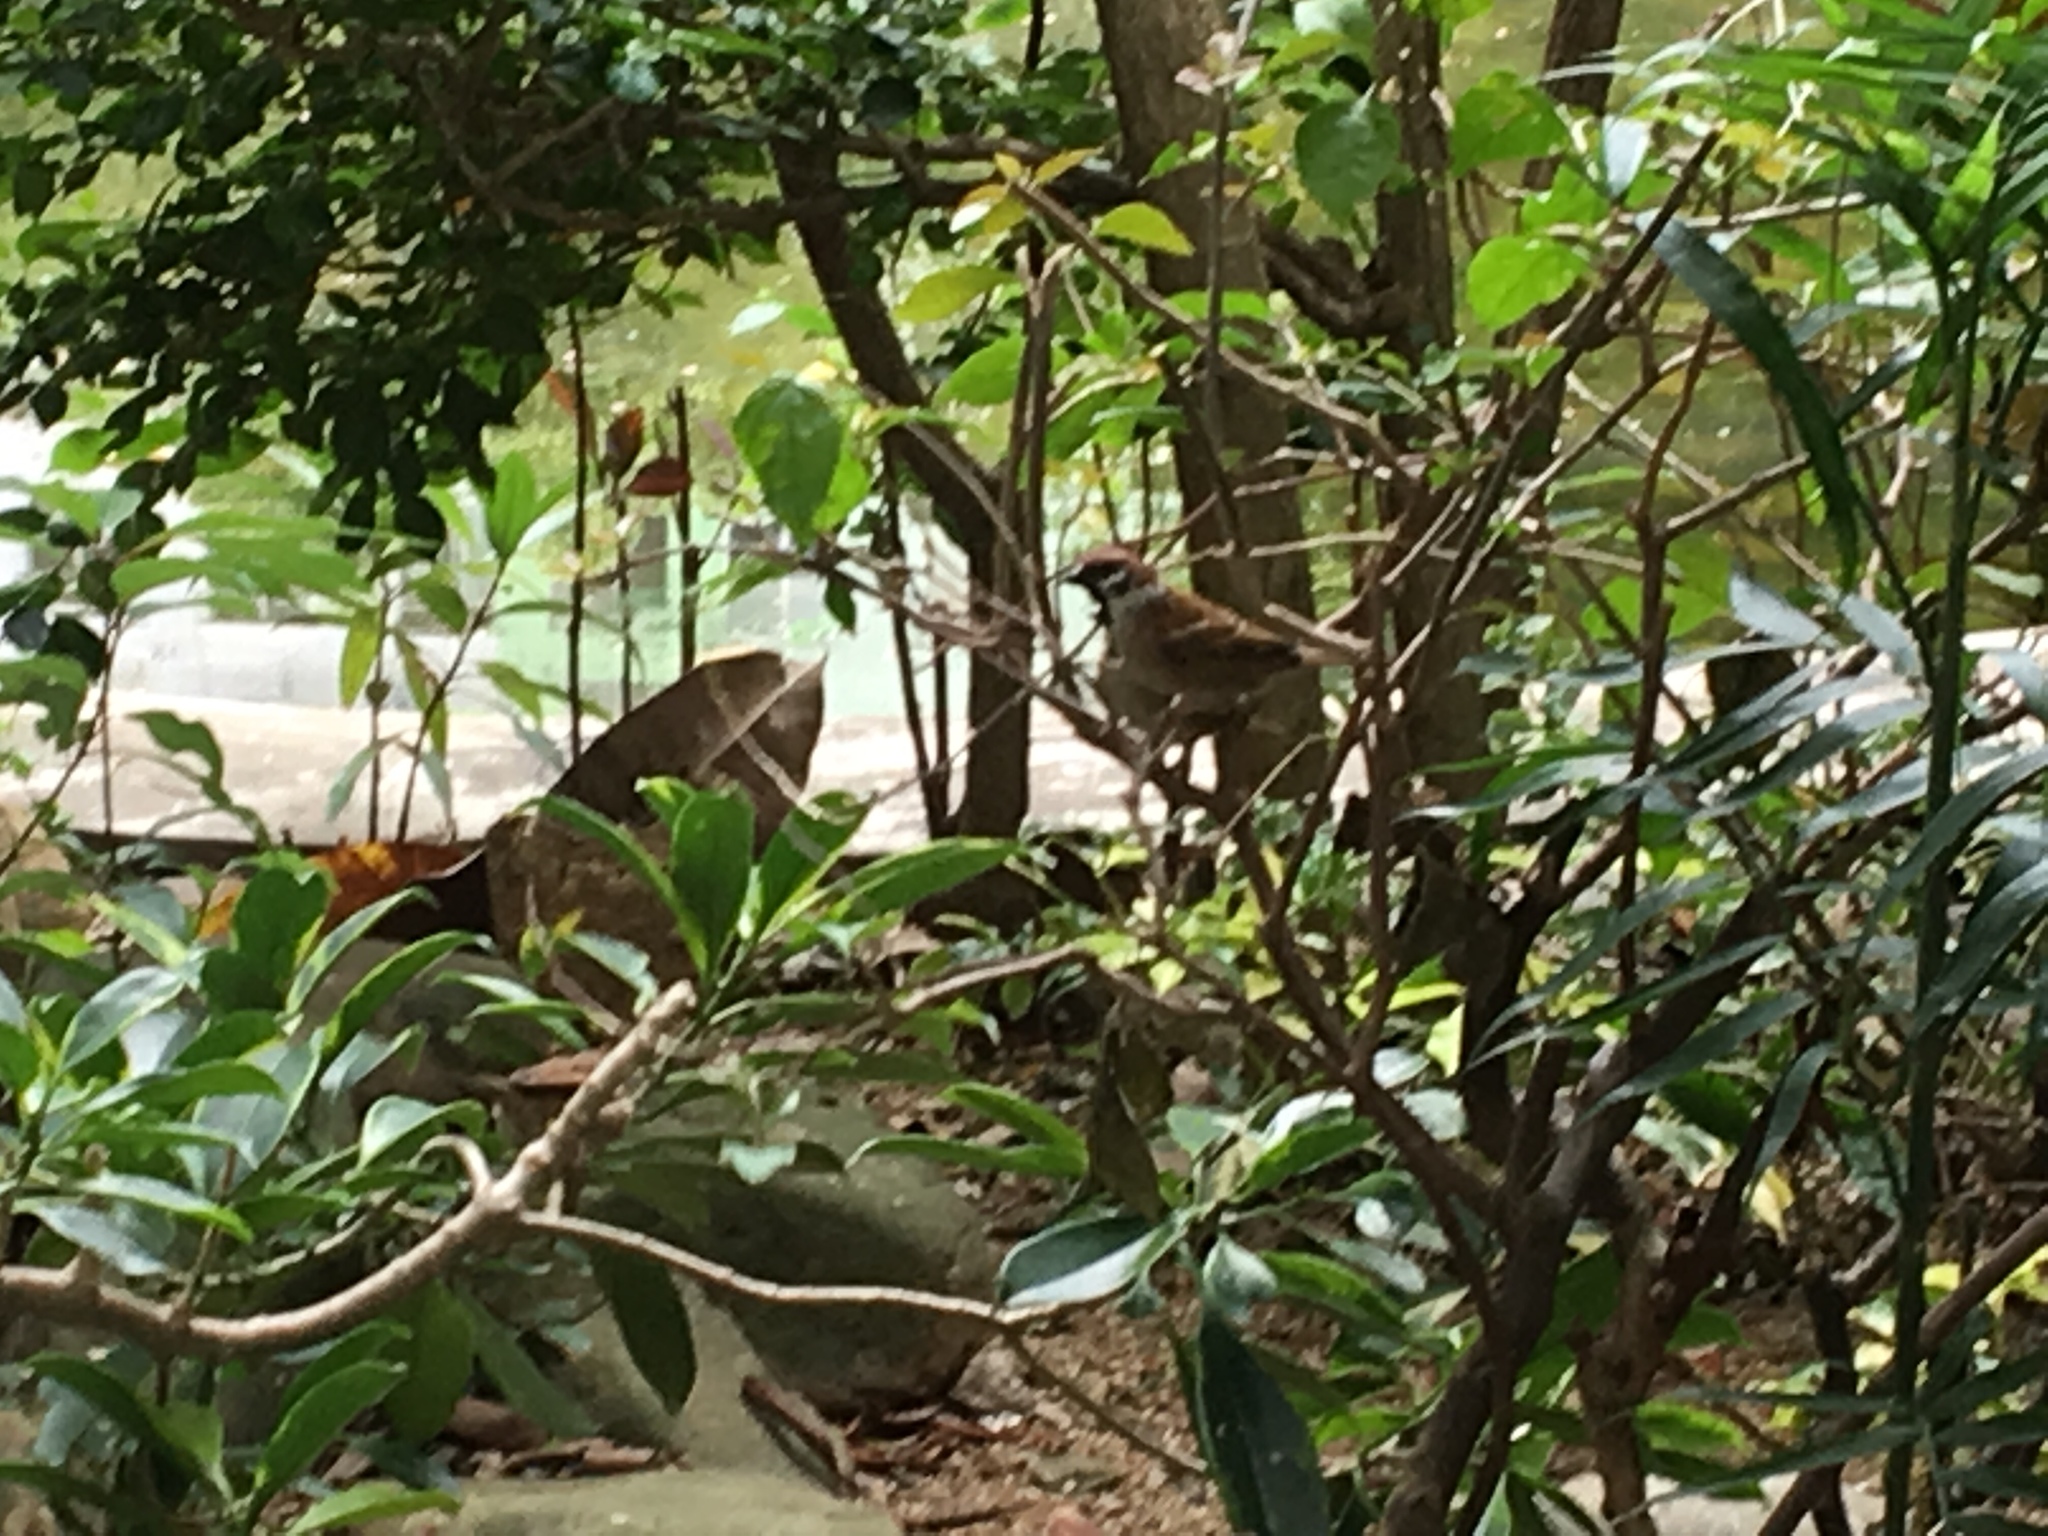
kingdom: Animalia
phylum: Chordata
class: Aves
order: Passeriformes
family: Passeridae
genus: Passer
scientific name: Passer montanus
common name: Eurasian tree sparrow
